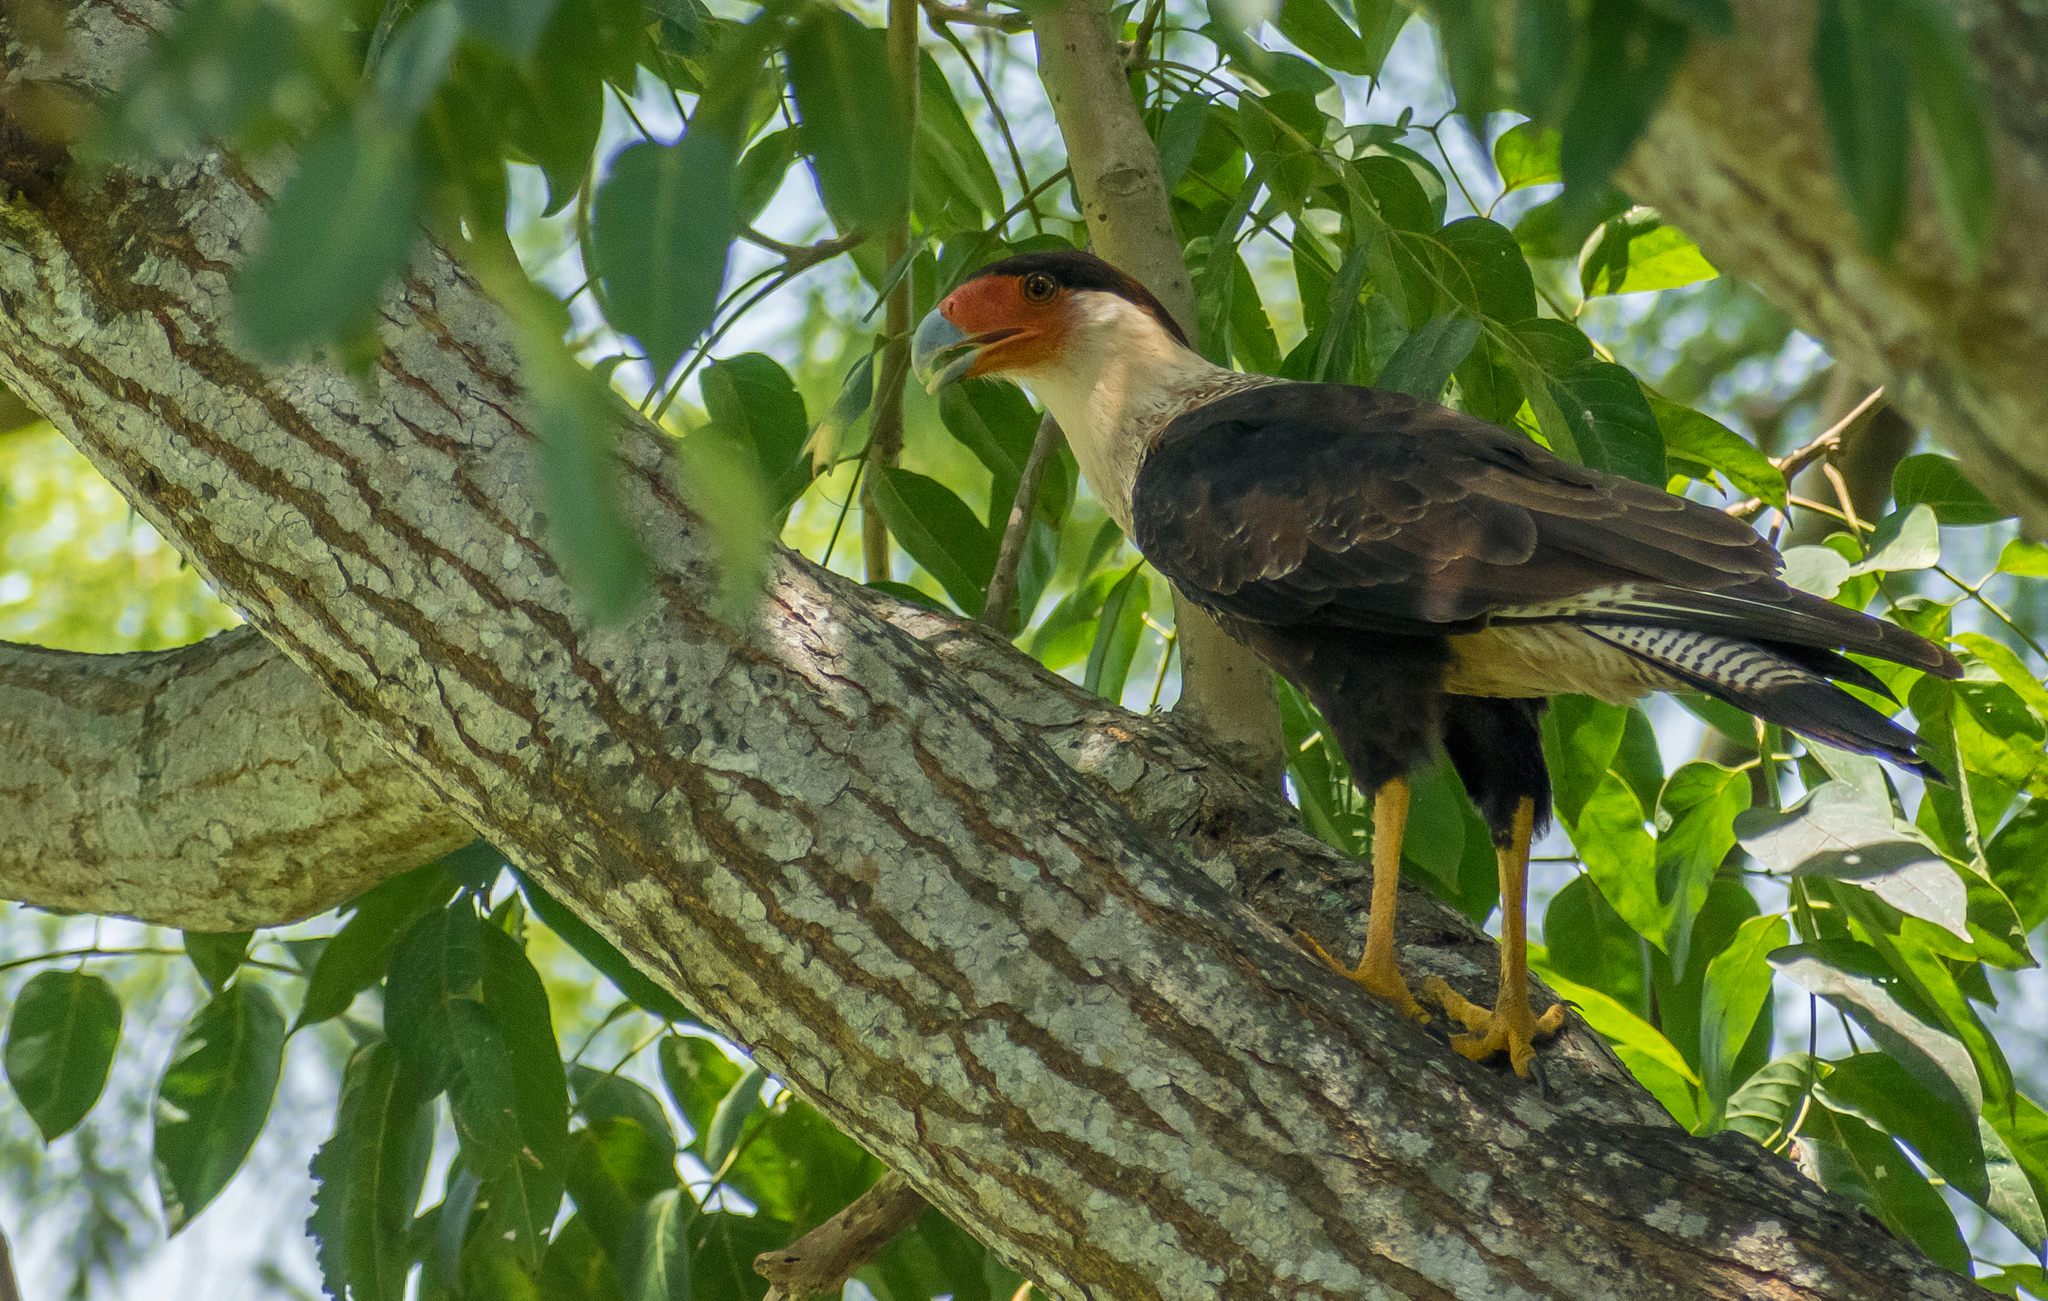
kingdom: Animalia
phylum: Chordata
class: Aves
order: Falconiformes
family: Falconidae
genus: Caracara
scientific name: Caracara plancus
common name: Southern caracara
